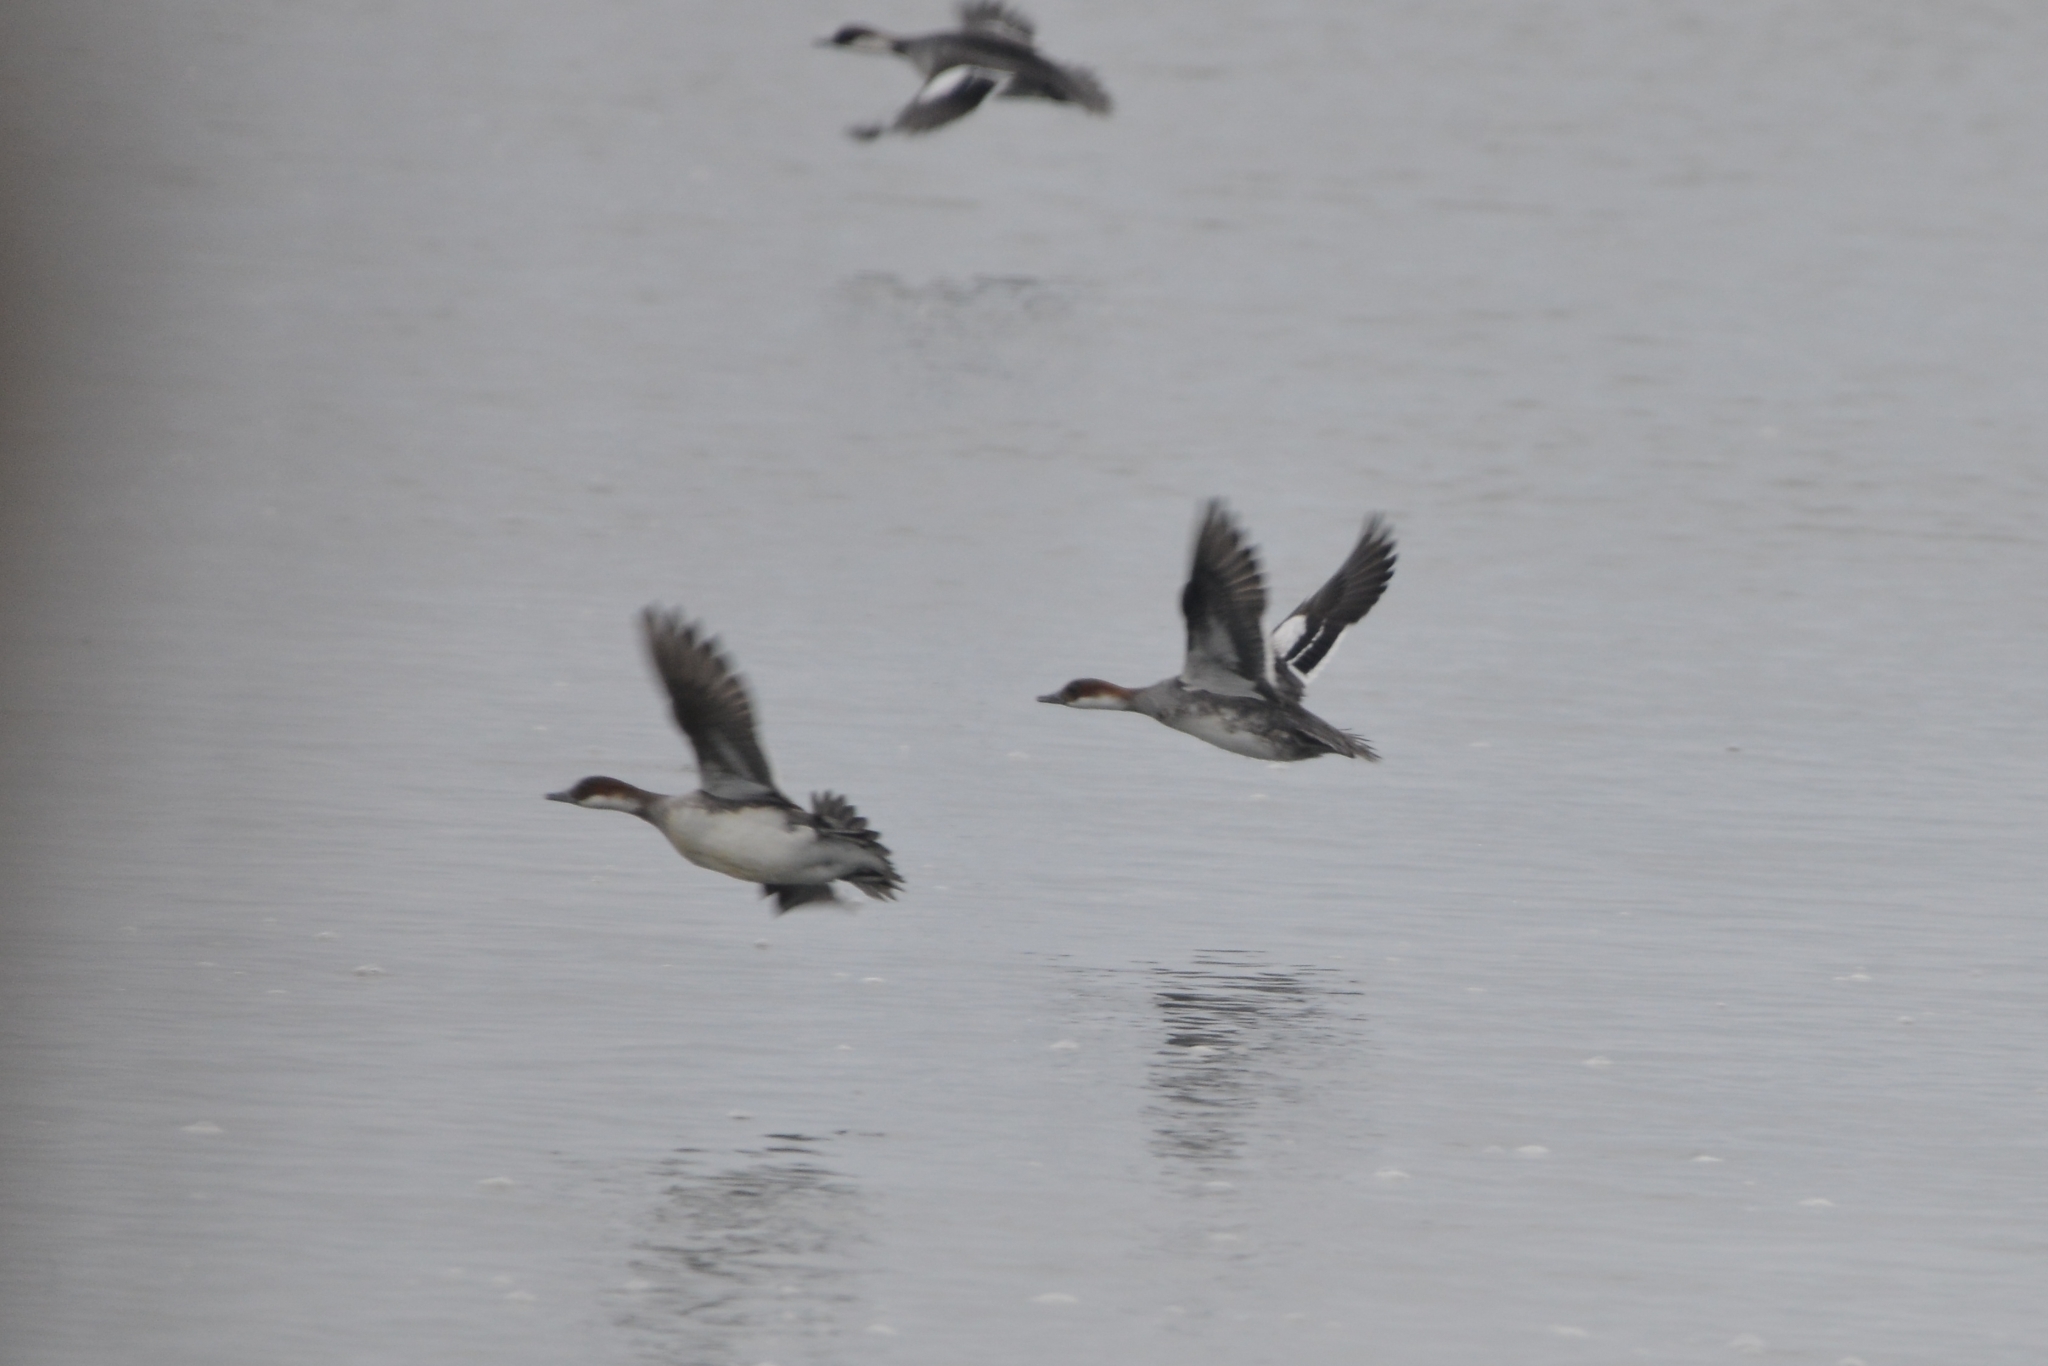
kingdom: Animalia
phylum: Chordata
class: Aves
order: Anseriformes
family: Anatidae
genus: Mergellus
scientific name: Mergellus albellus
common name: Smew
